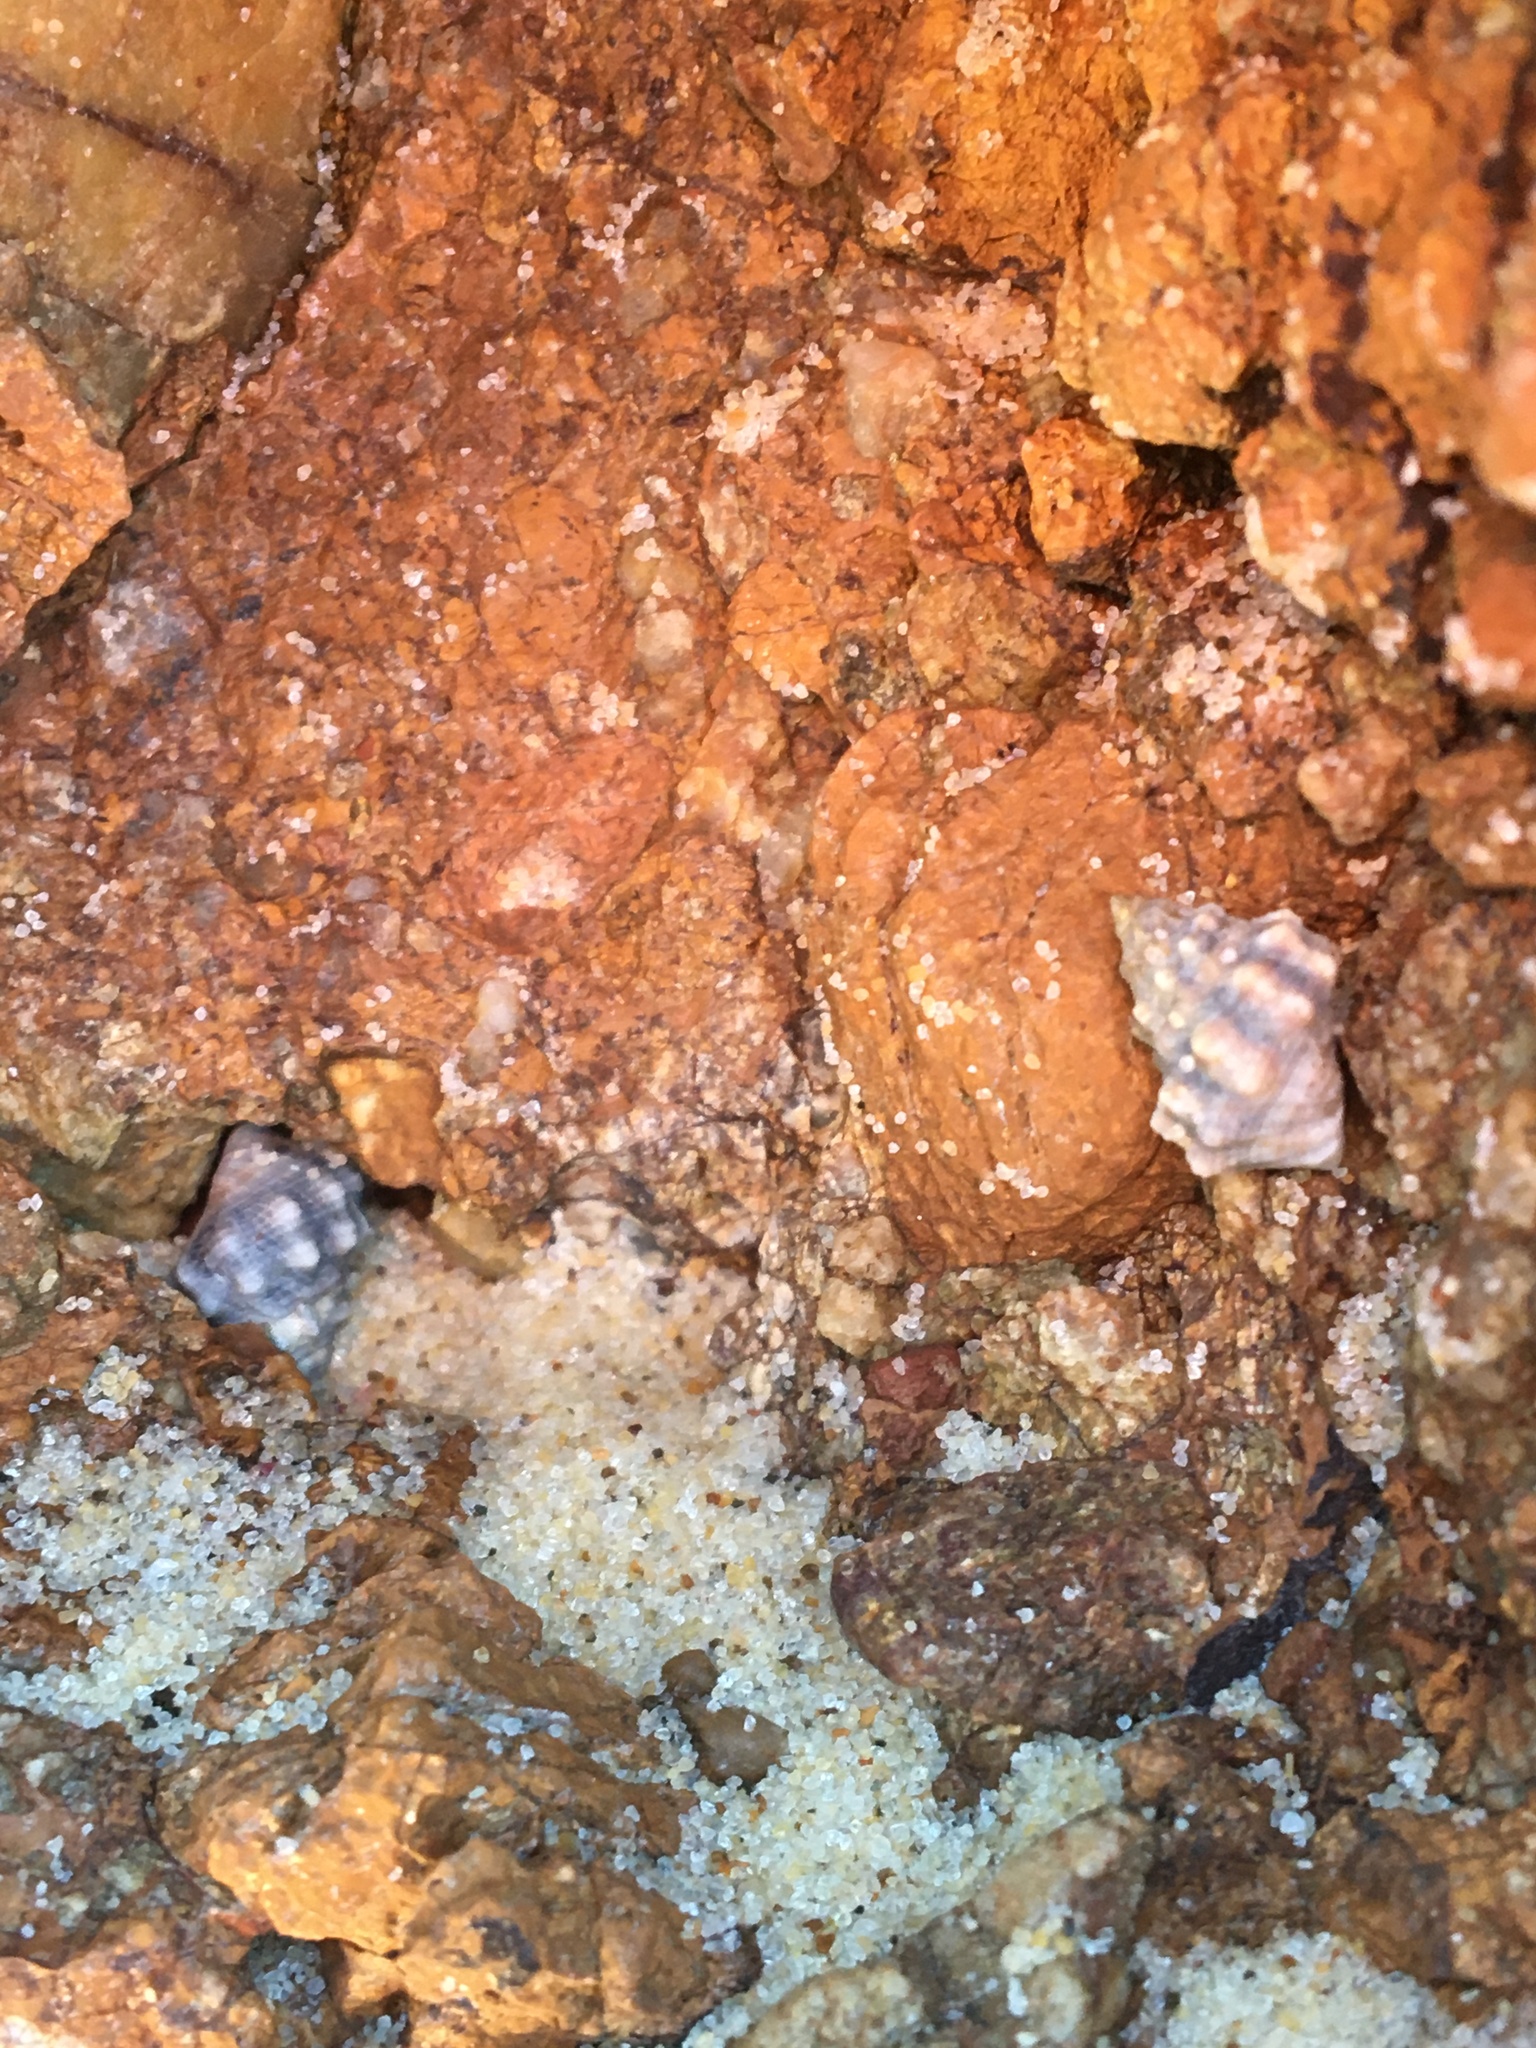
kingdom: Animalia
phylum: Mollusca
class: Gastropoda
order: Littorinimorpha
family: Littorinidae
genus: Nodilittorina
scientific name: Nodilittorina pyramidalis
